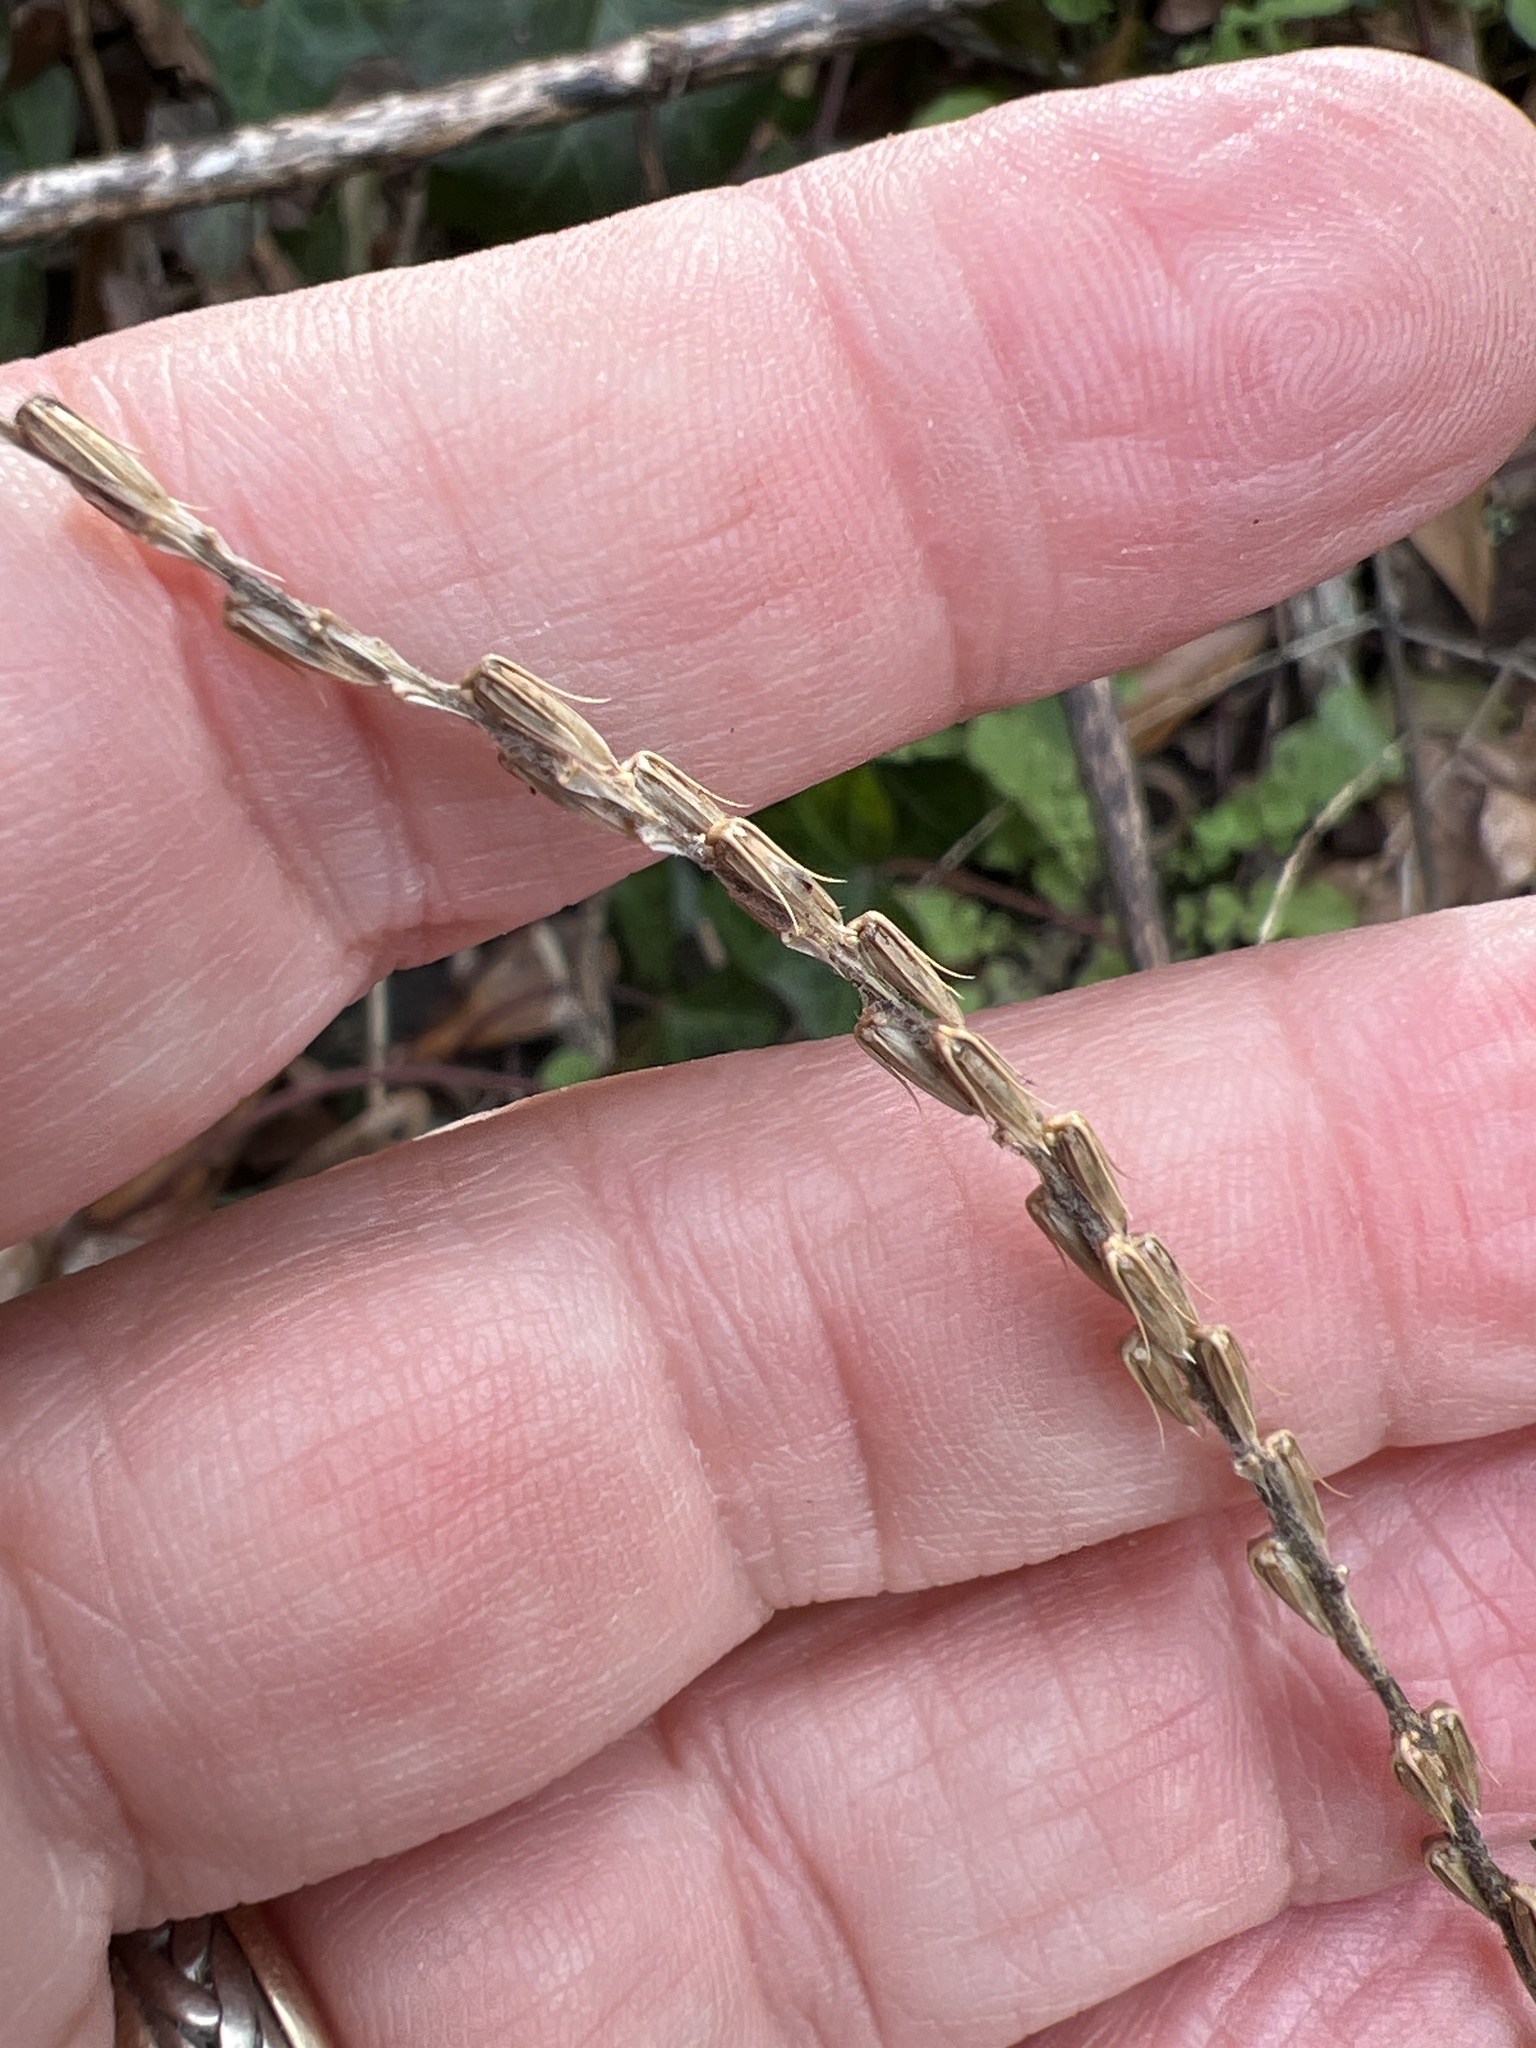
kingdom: Plantae
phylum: Tracheophyta
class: Magnoliopsida
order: Caryophyllales
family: Amaranthaceae
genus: Achyranthes
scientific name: Achyranthes bidentata
